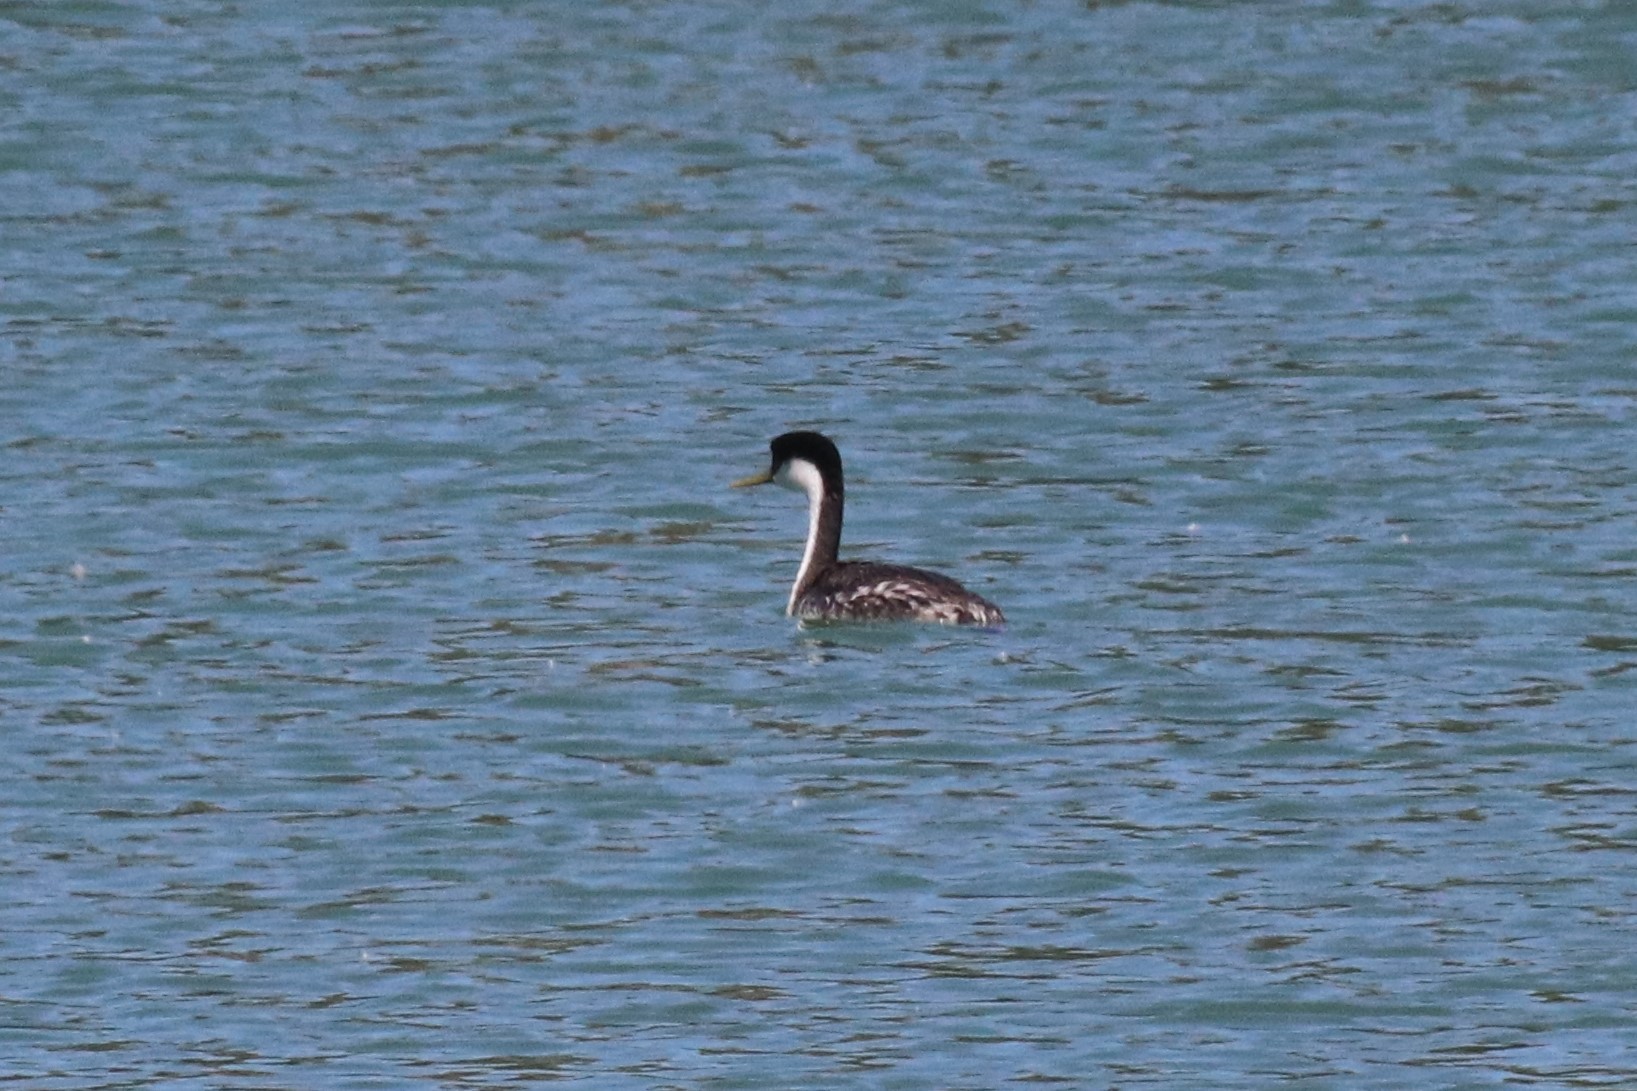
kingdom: Animalia
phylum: Chordata
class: Aves
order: Podicipediformes
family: Podicipedidae
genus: Aechmophorus
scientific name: Aechmophorus occidentalis
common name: Western grebe
